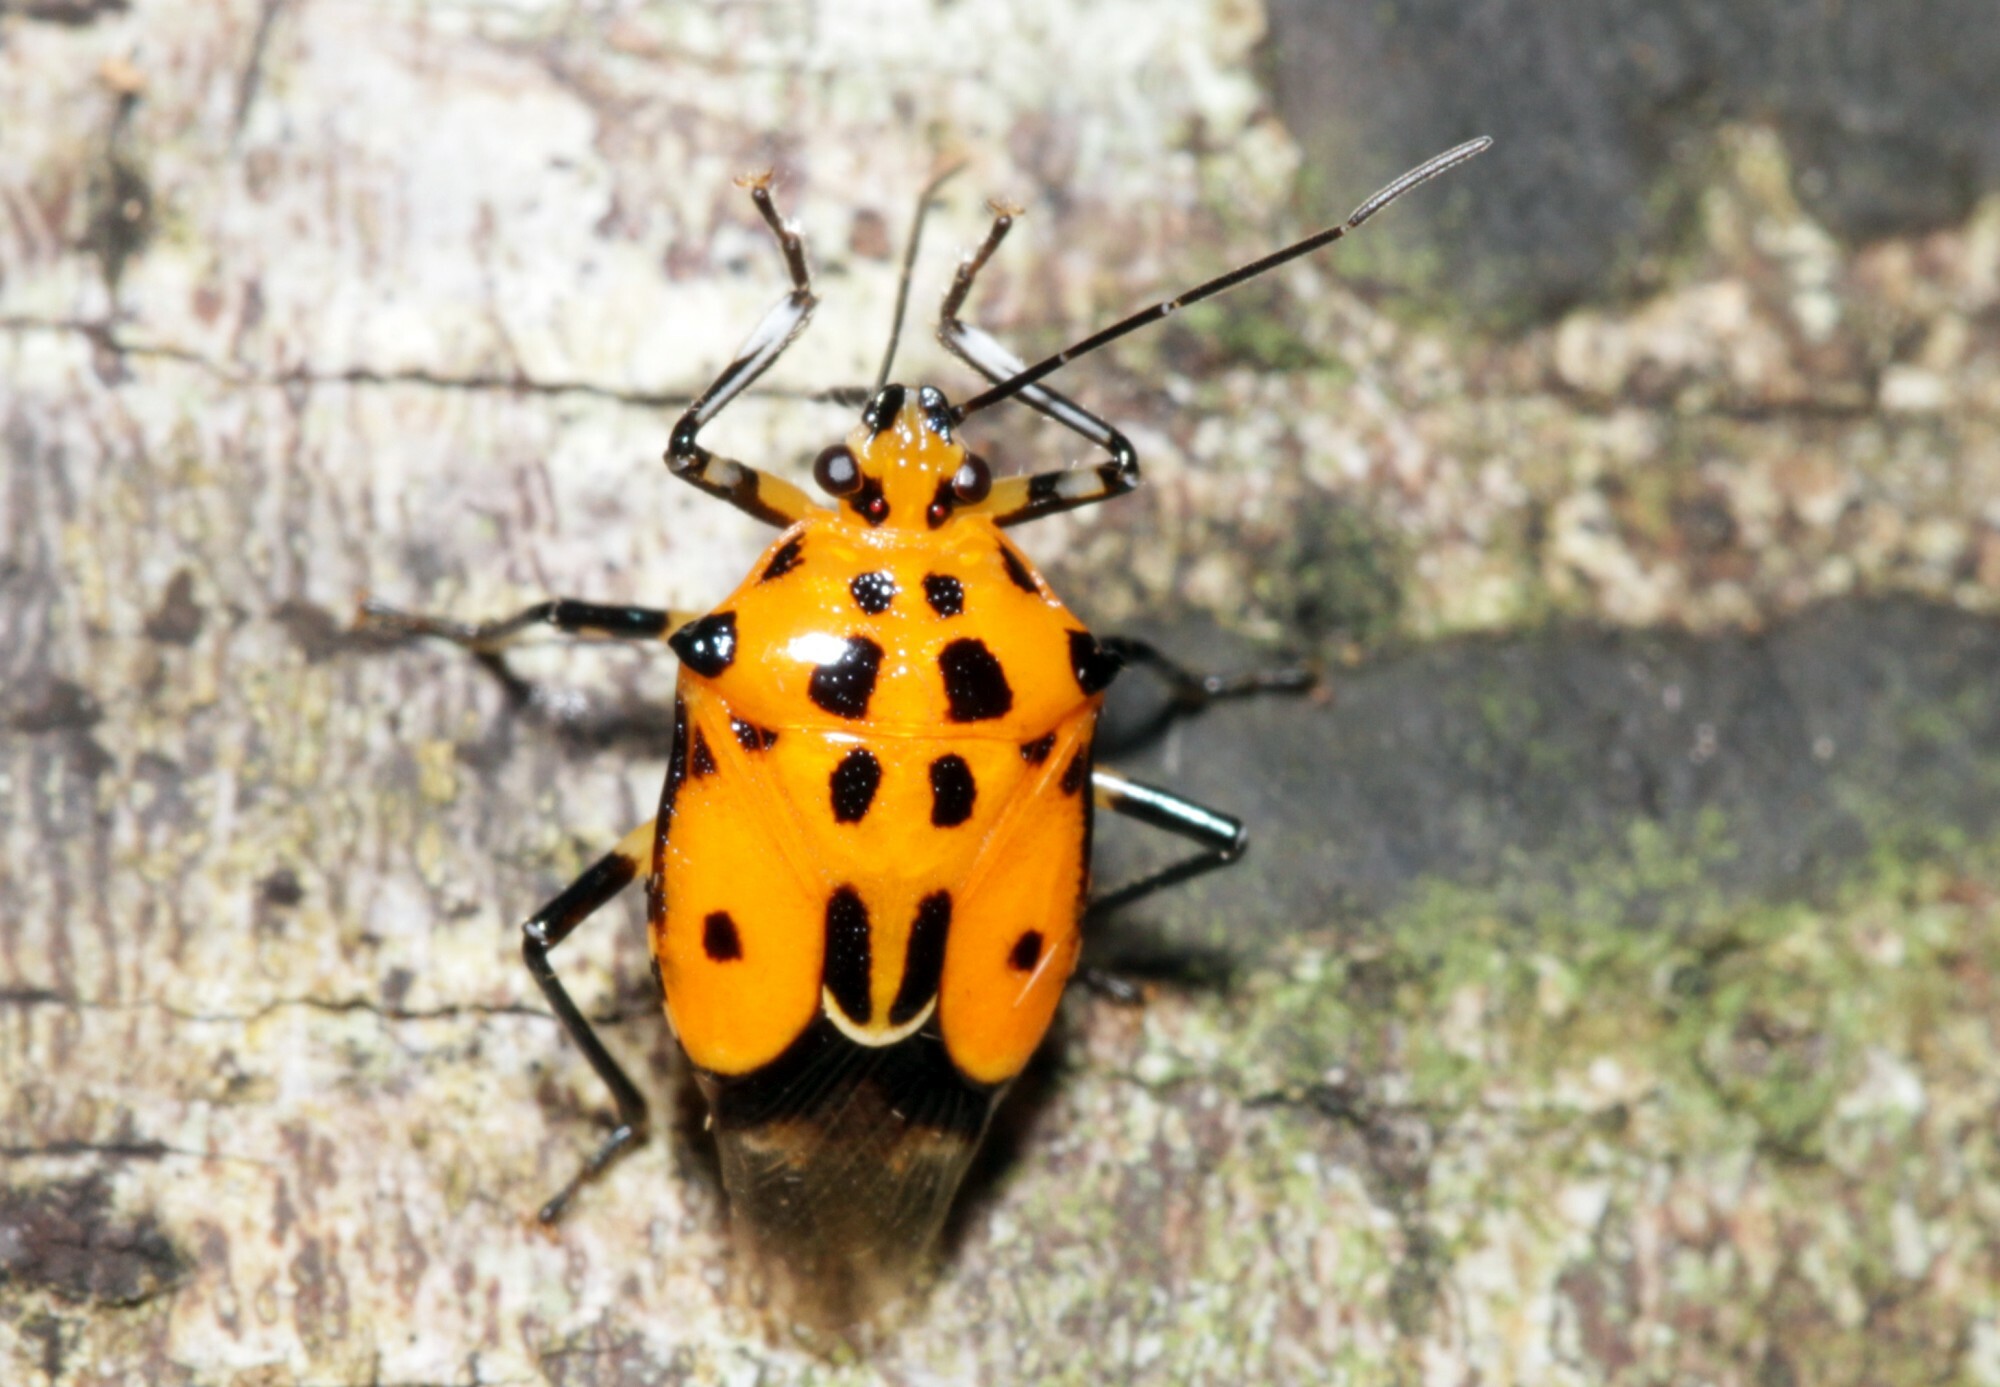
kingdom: Animalia
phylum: Arthropoda
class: Insecta
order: Hemiptera
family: Pentatomidae
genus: Coryzorhaphis
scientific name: Coryzorhaphis carneolus
